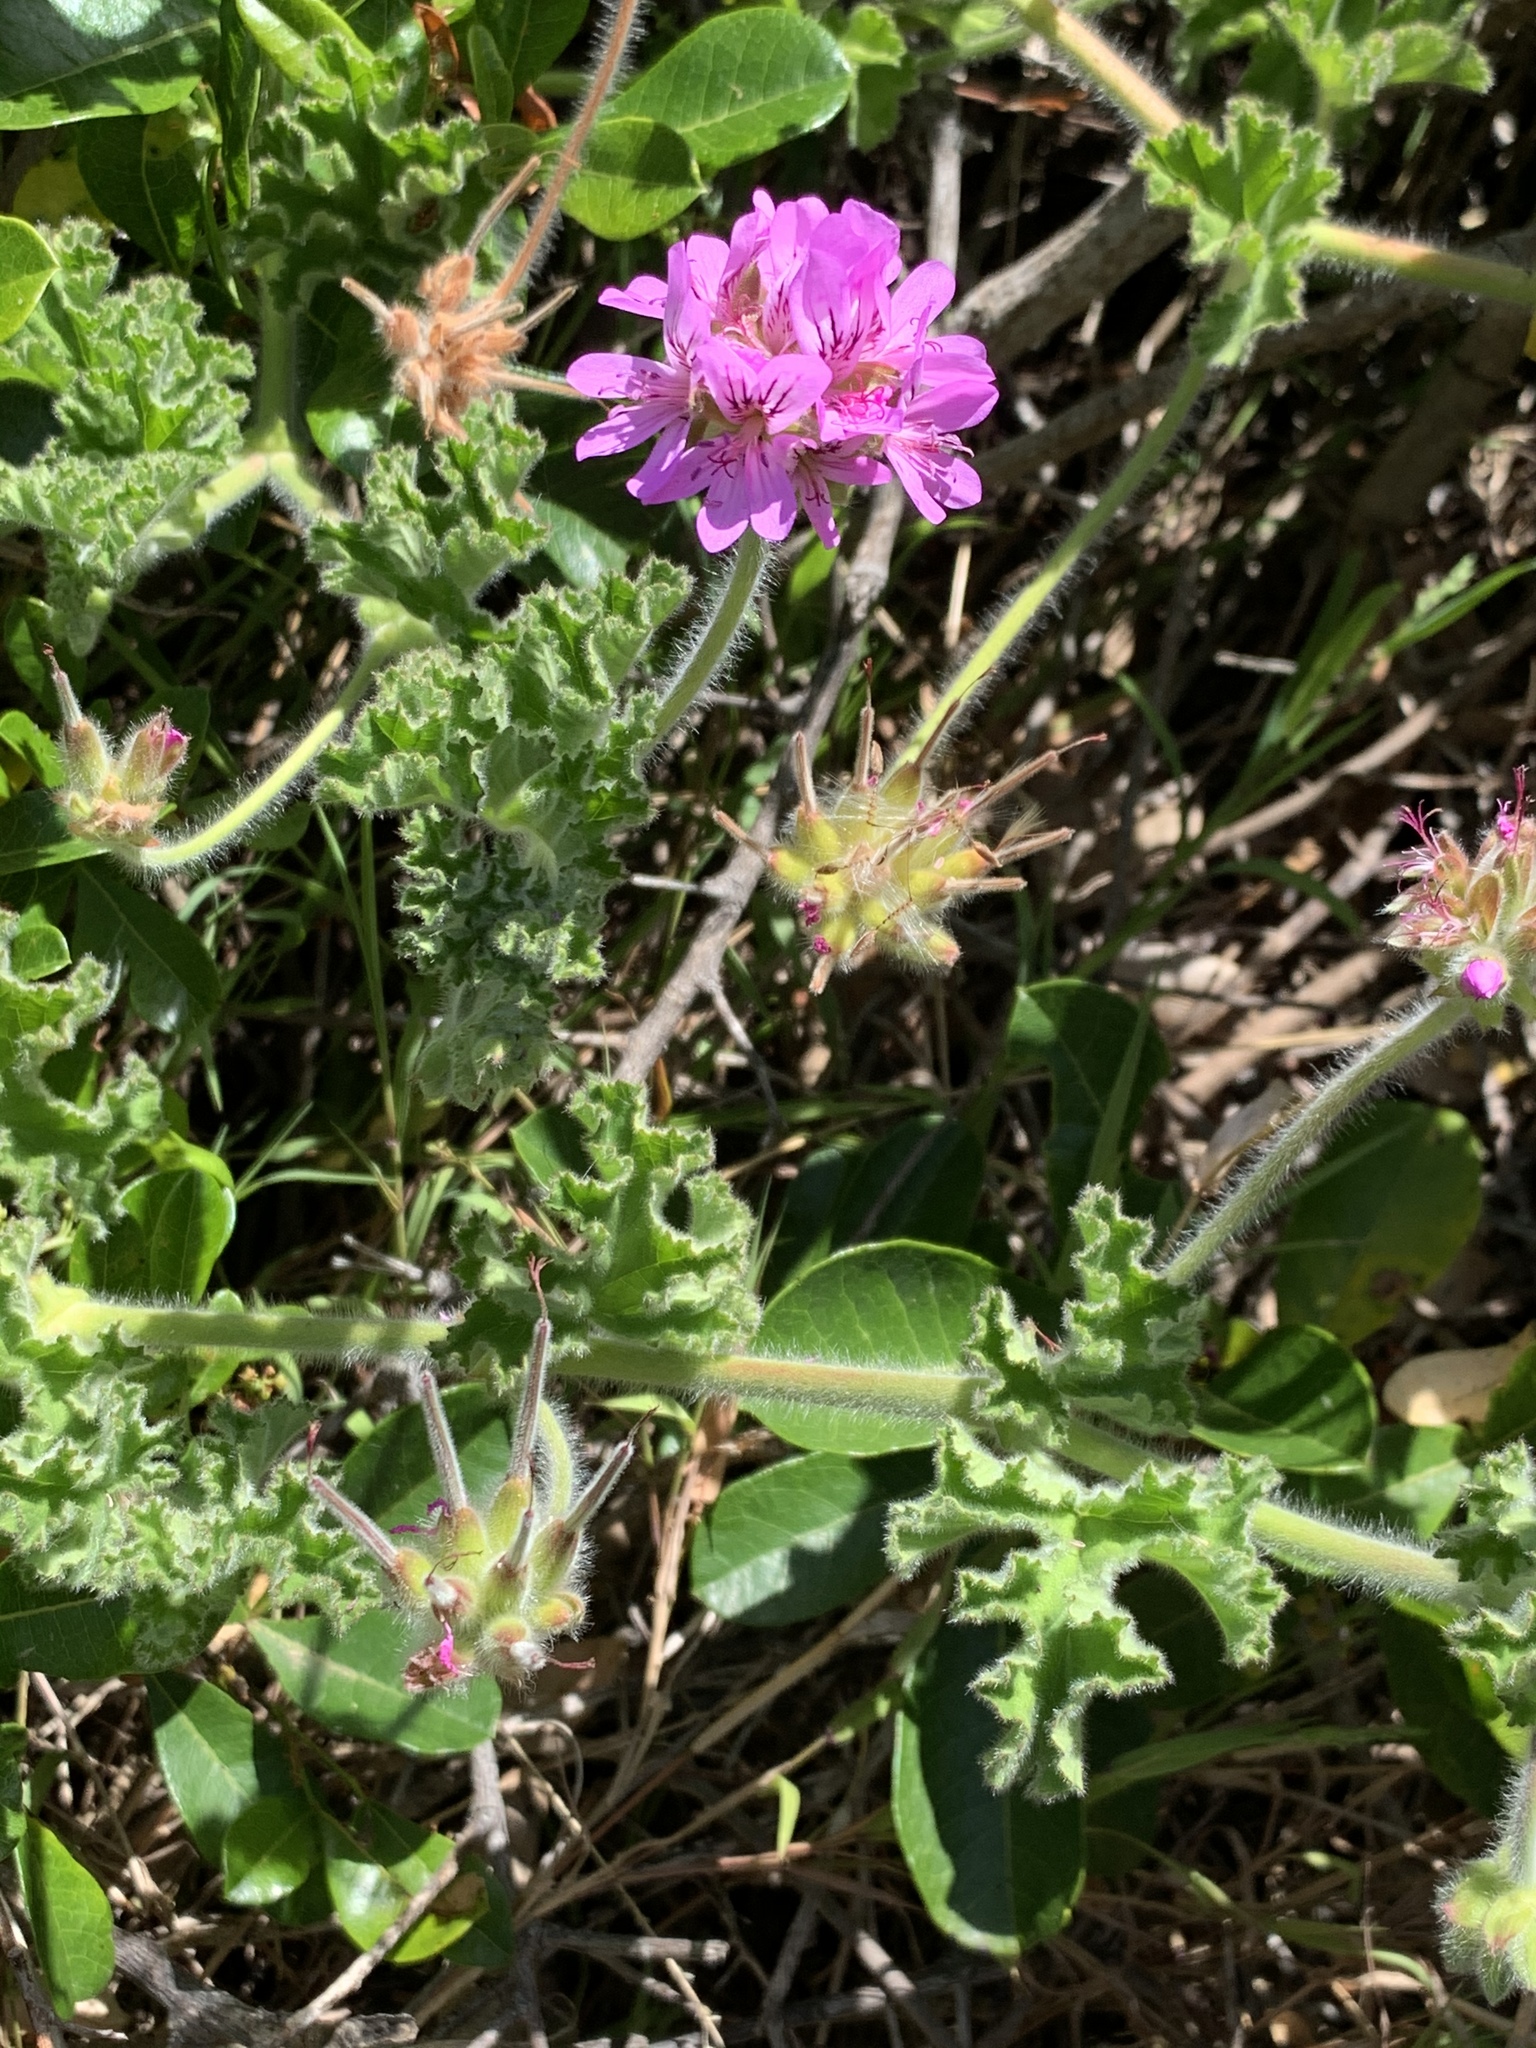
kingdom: Plantae
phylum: Tracheophyta
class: Magnoliopsida
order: Geraniales
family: Geraniaceae
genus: Pelargonium
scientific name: Pelargonium capitatum
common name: Rose scented geranium
